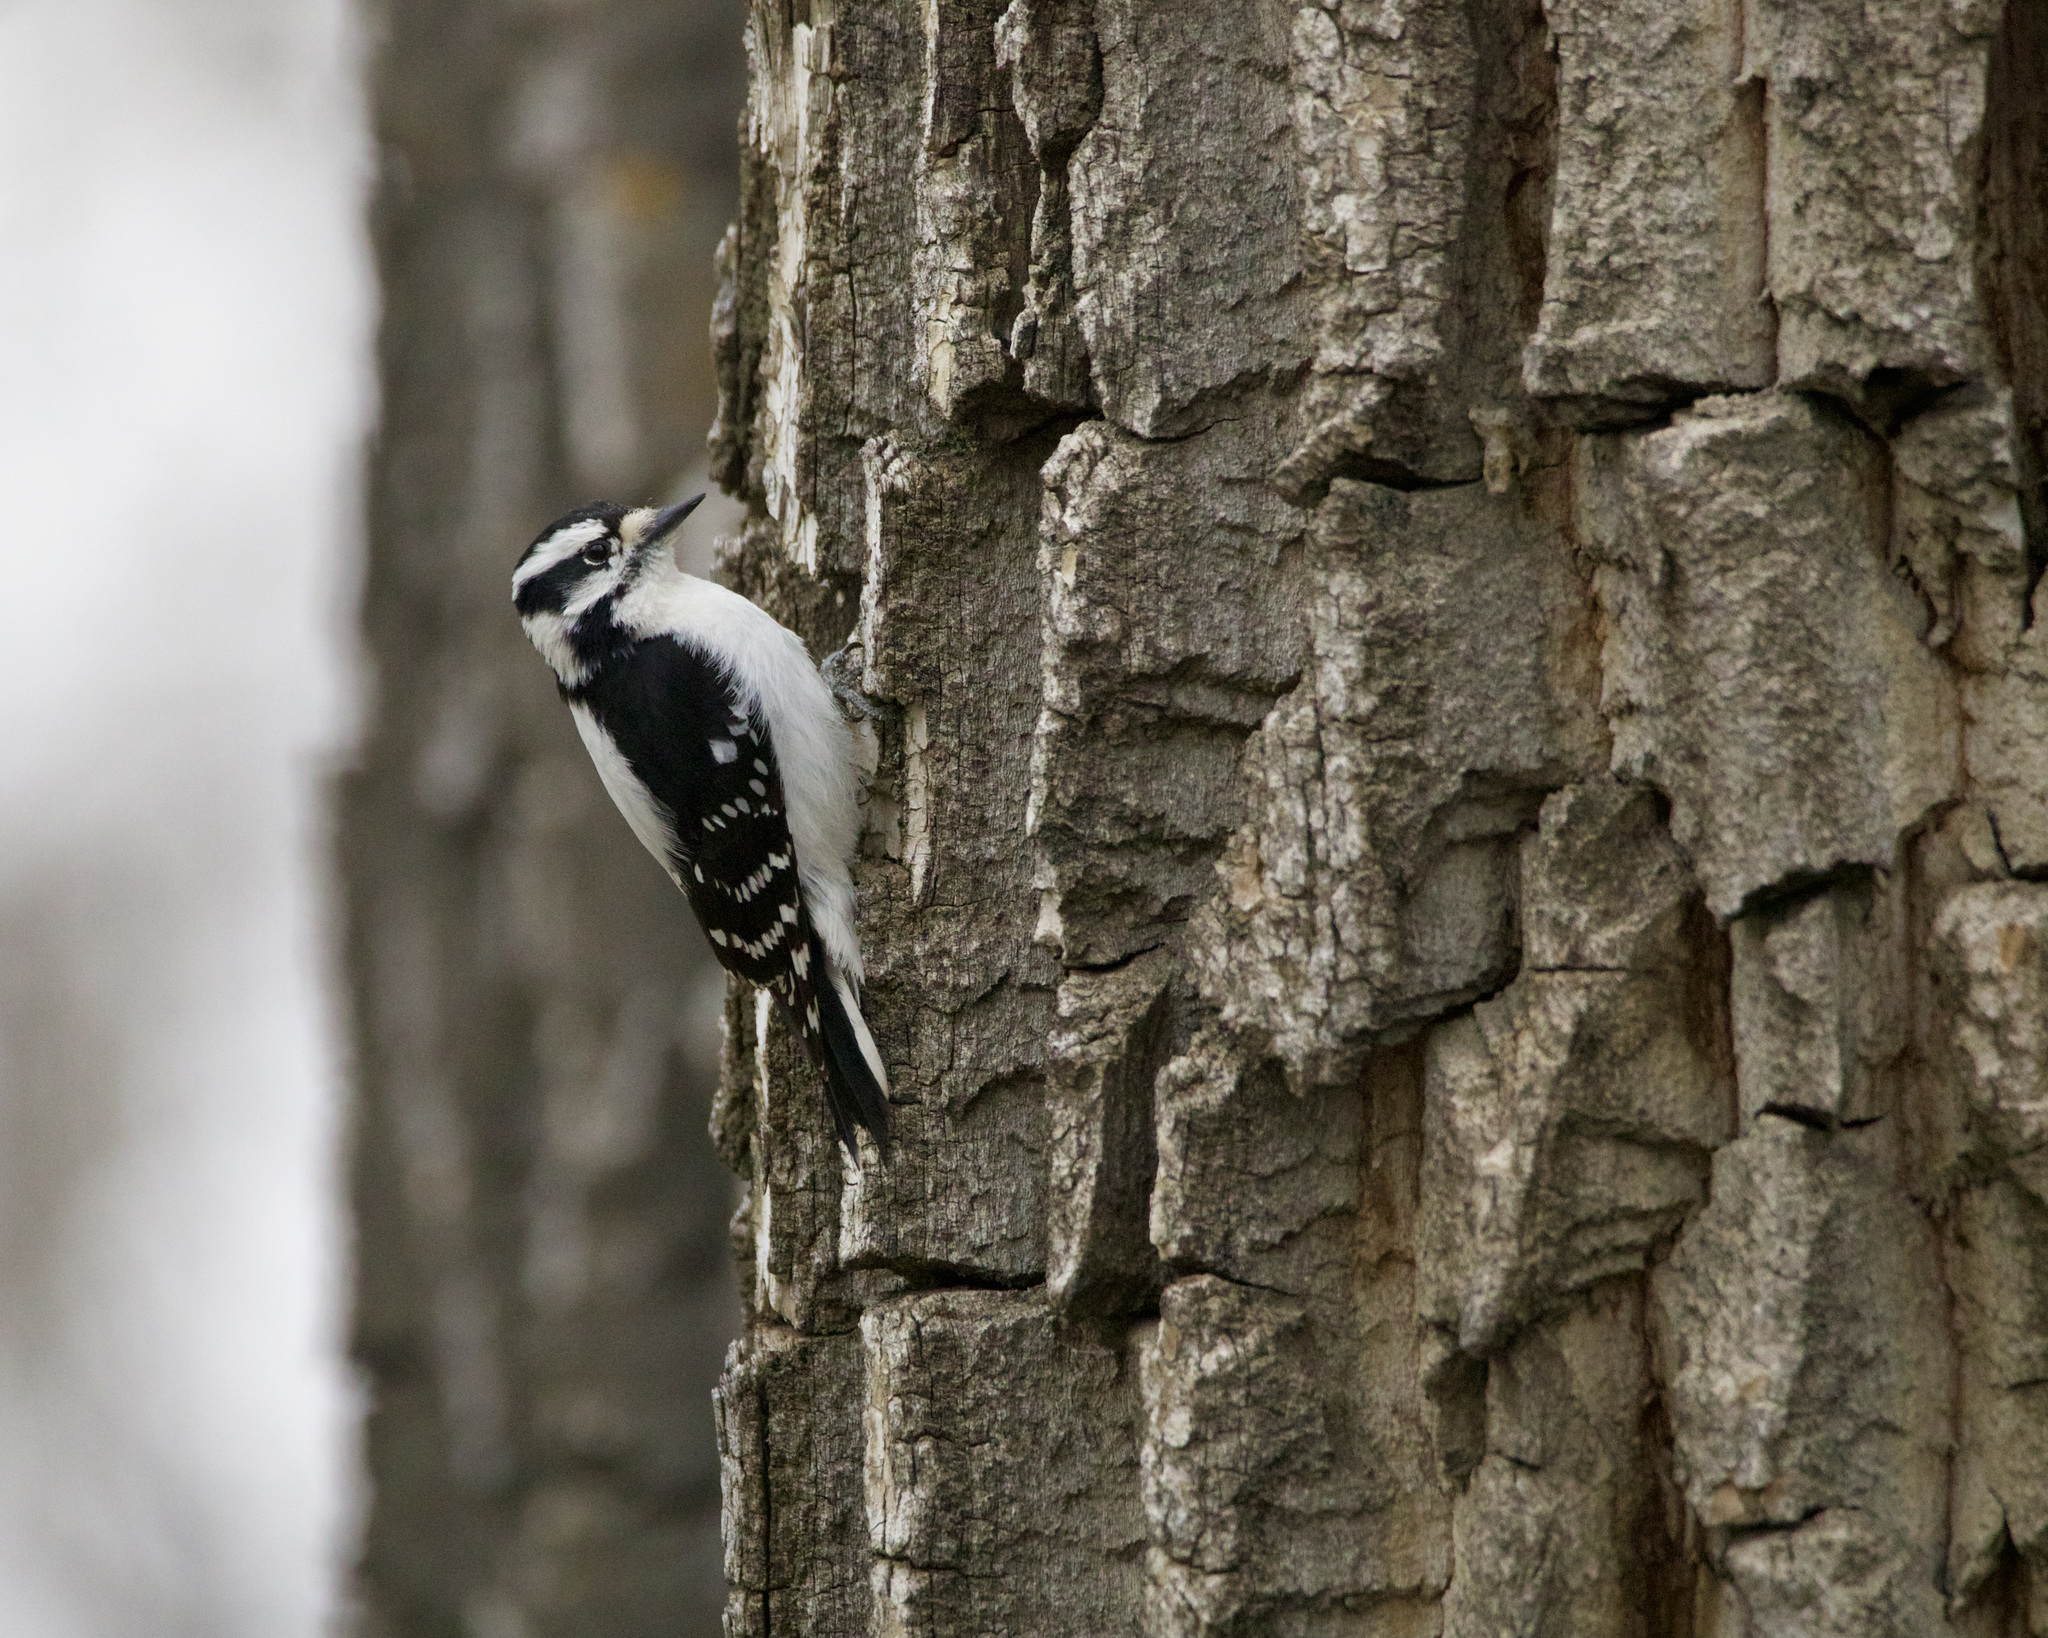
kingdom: Animalia
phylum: Chordata
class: Aves
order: Piciformes
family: Picidae
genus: Dryobates
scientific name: Dryobates pubescens
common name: Downy woodpecker
